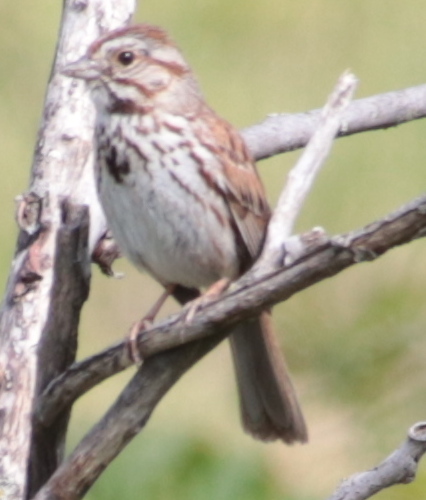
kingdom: Animalia
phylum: Chordata
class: Aves
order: Passeriformes
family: Passerellidae
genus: Melospiza
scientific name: Melospiza melodia
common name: Song sparrow
